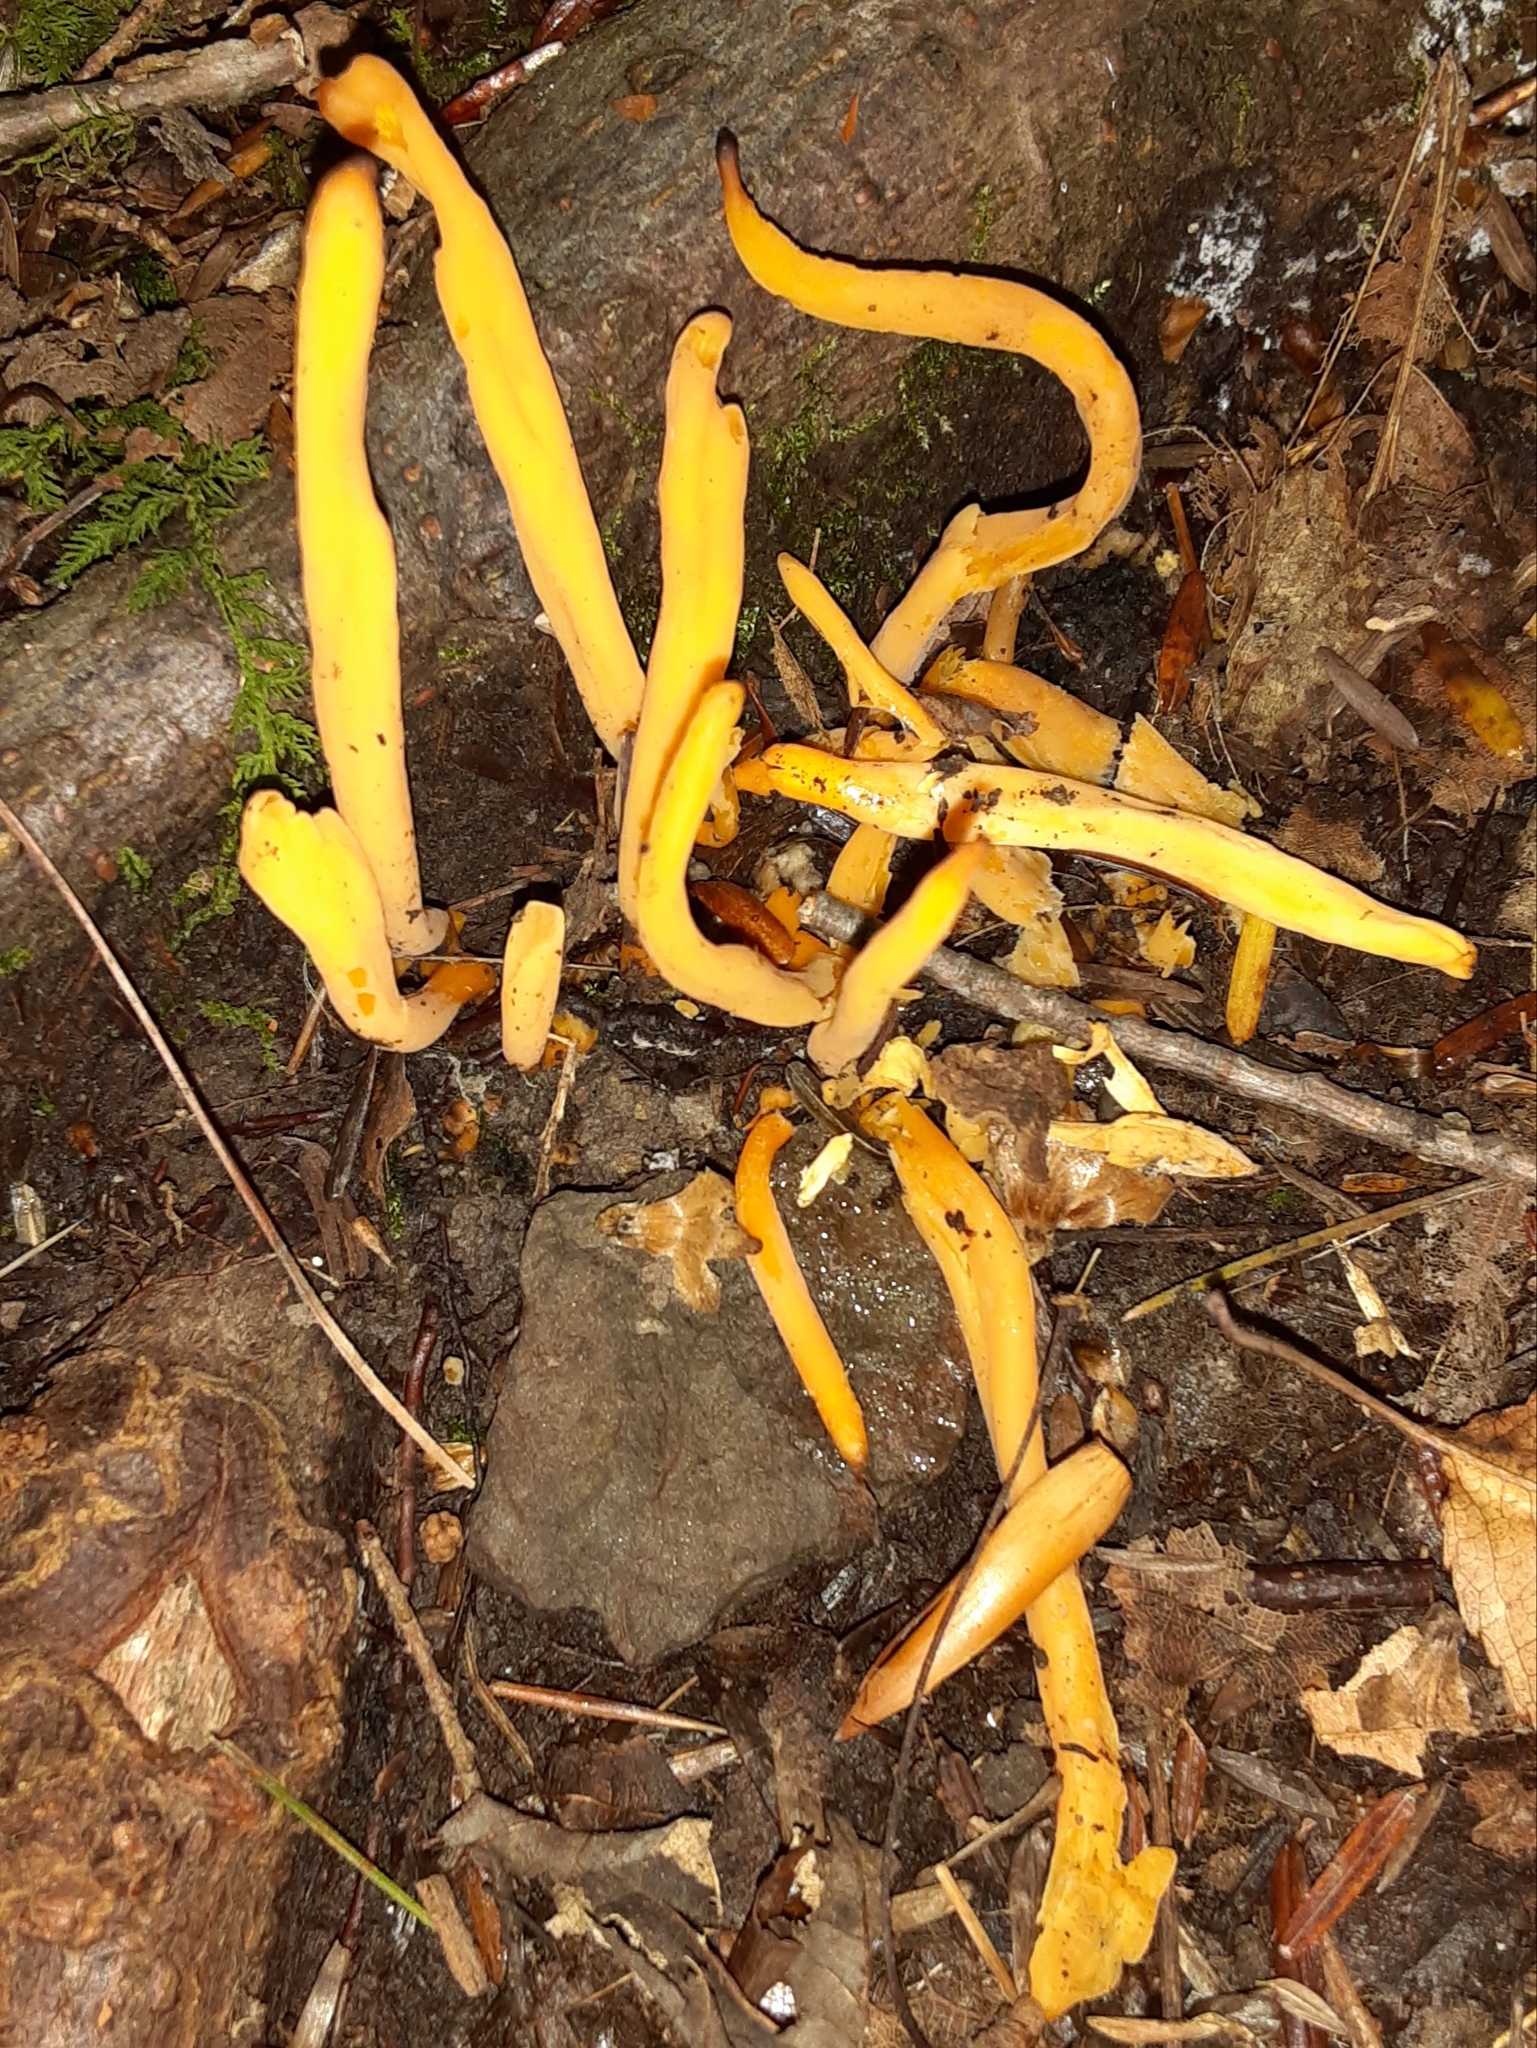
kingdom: Fungi
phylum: Basidiomycota
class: Agaricomycetes
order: Agaricales
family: Clavariaceae
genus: Clavulinopsis
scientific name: Clavulinopsis fusiformis
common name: Golden spindles
